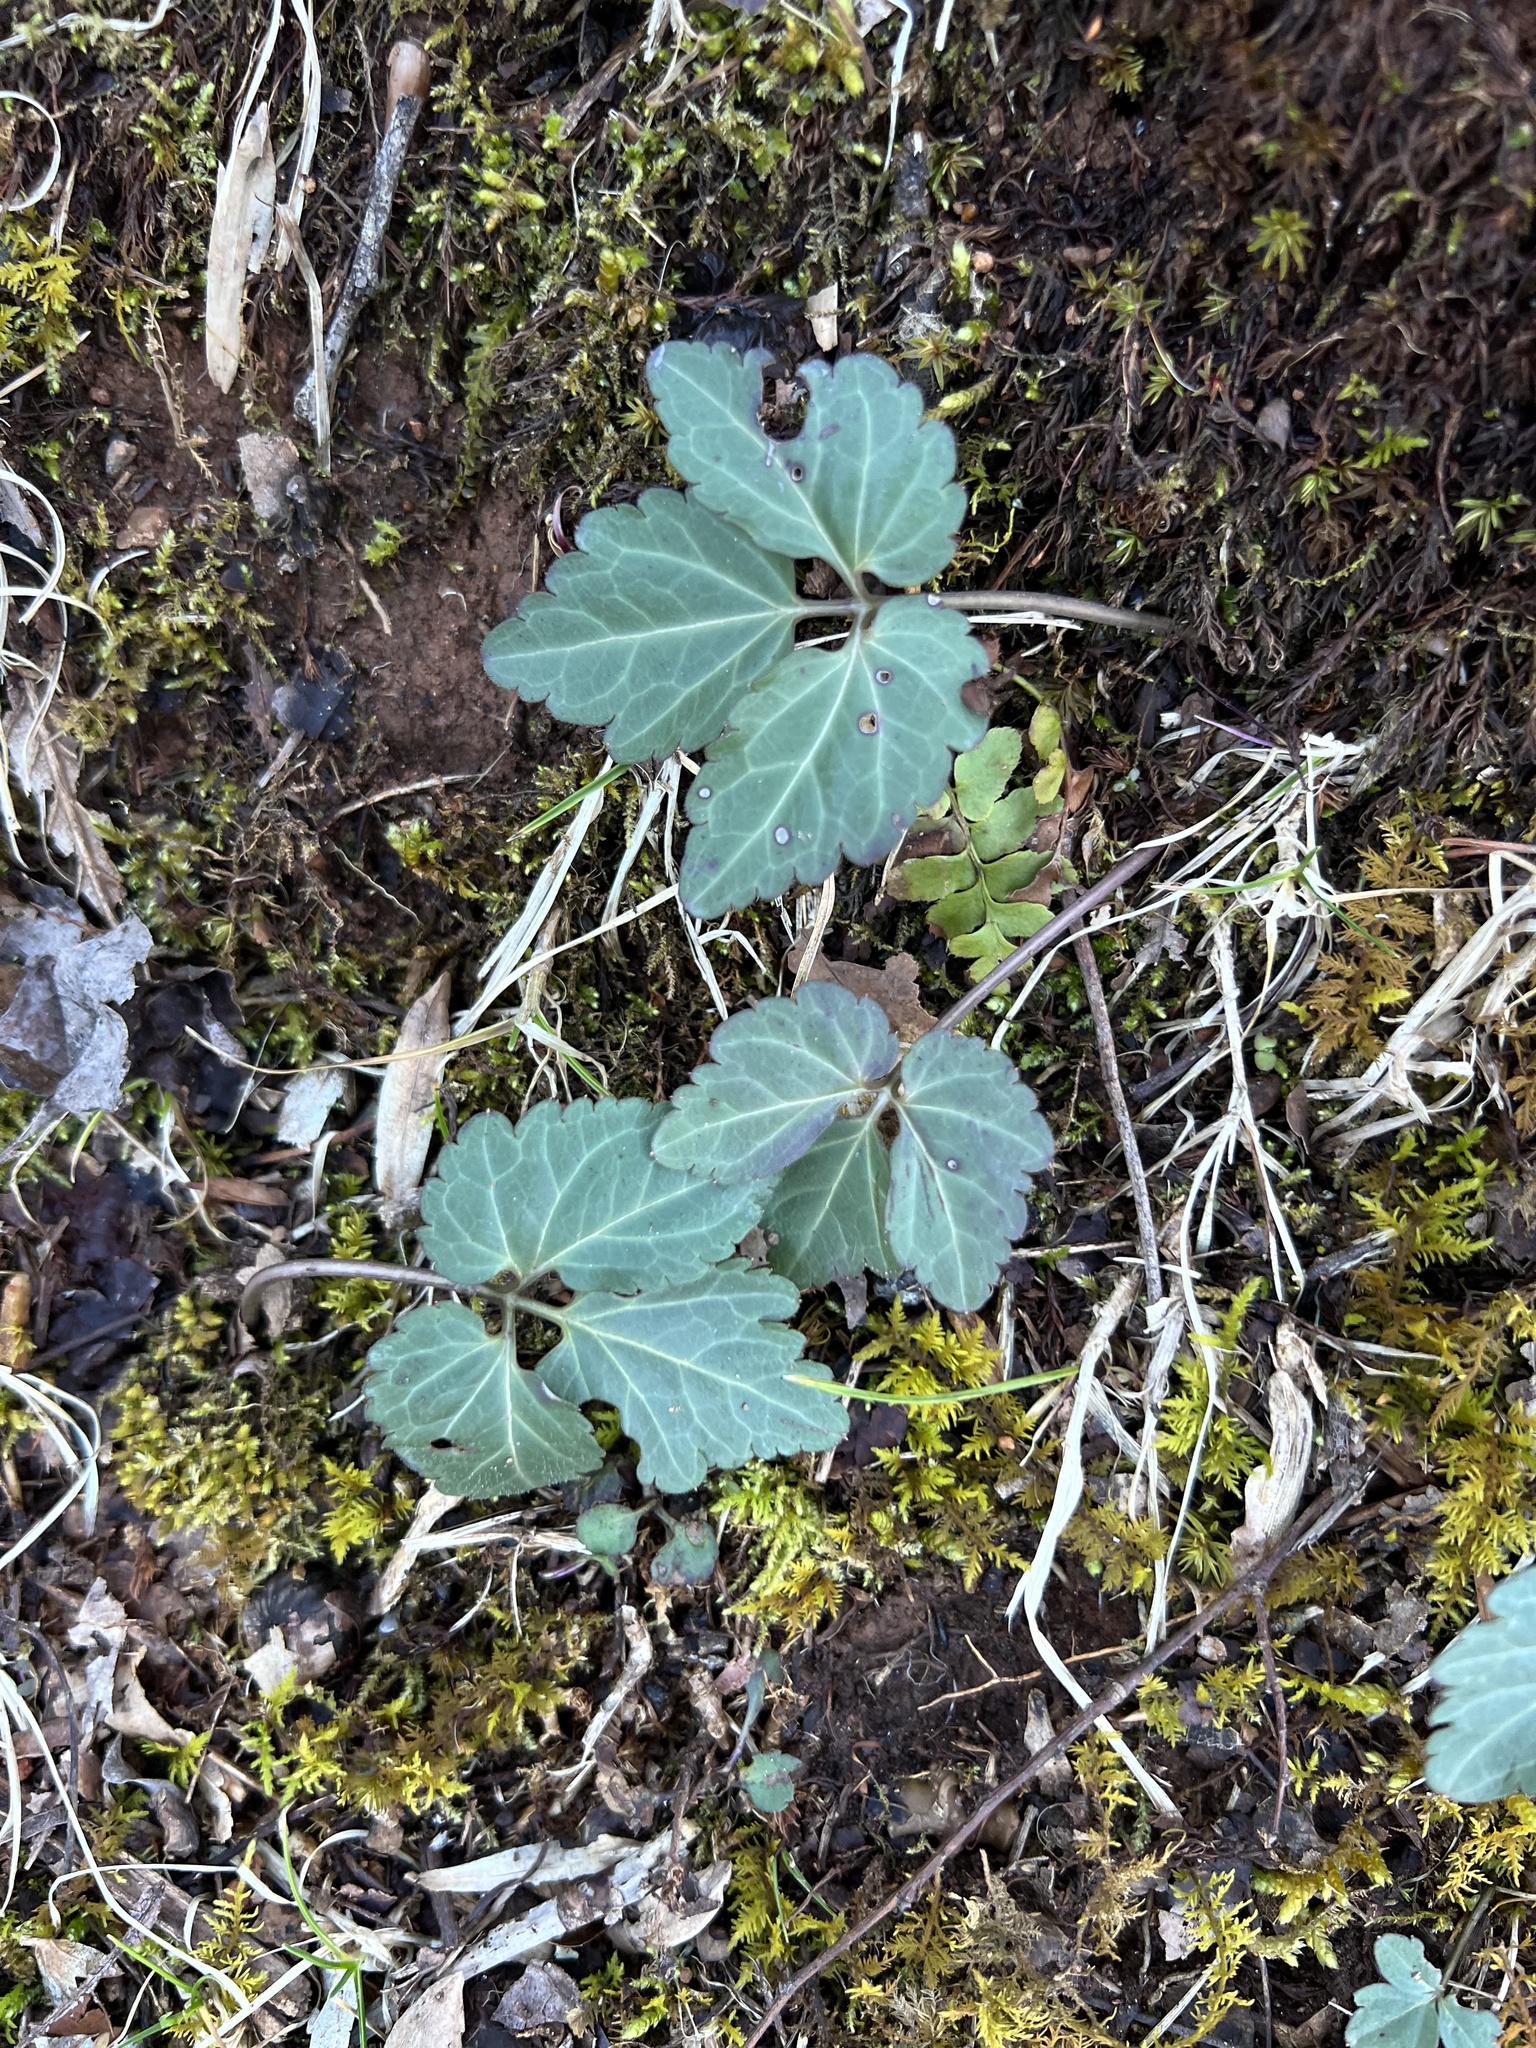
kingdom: Plantae
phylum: Tracheophyta
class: Magnoliopsida
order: Brassicales
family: Brassicaceae
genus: Cardamine
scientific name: Cardamine diphylla
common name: Broad-leaved toothwort
